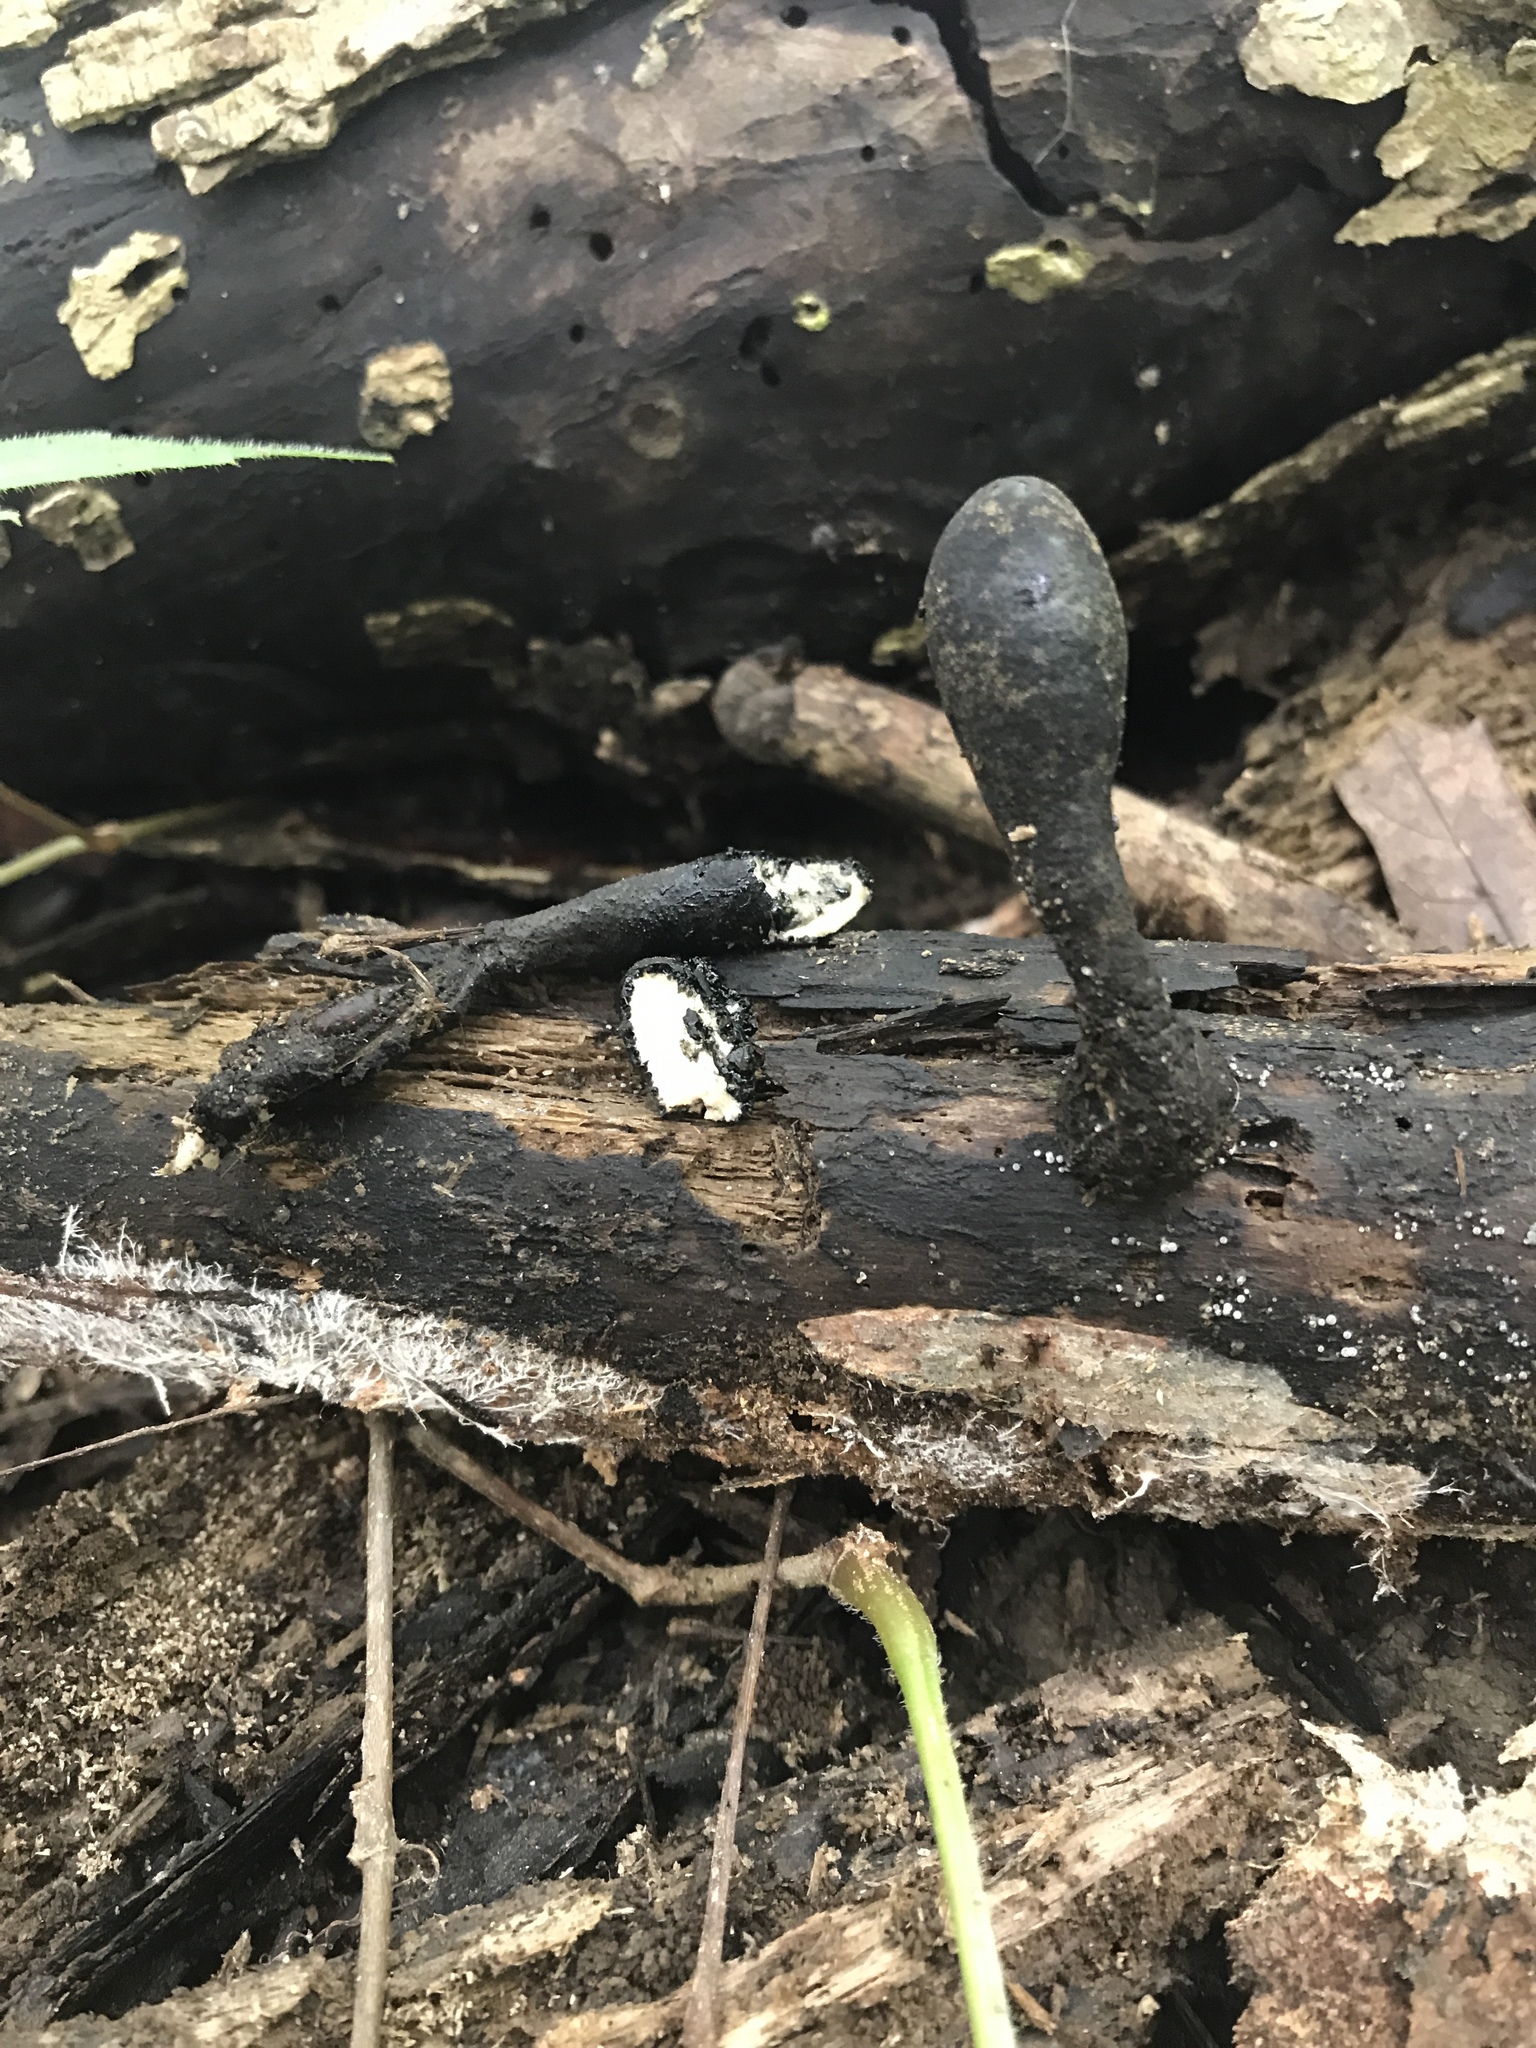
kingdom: Fungi
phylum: Ascomycota
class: Sordariomycetes
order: Xylariales
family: Xylariaceae
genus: Xylaria
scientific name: Xylaria polymorpha
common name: Dead man's fingers
